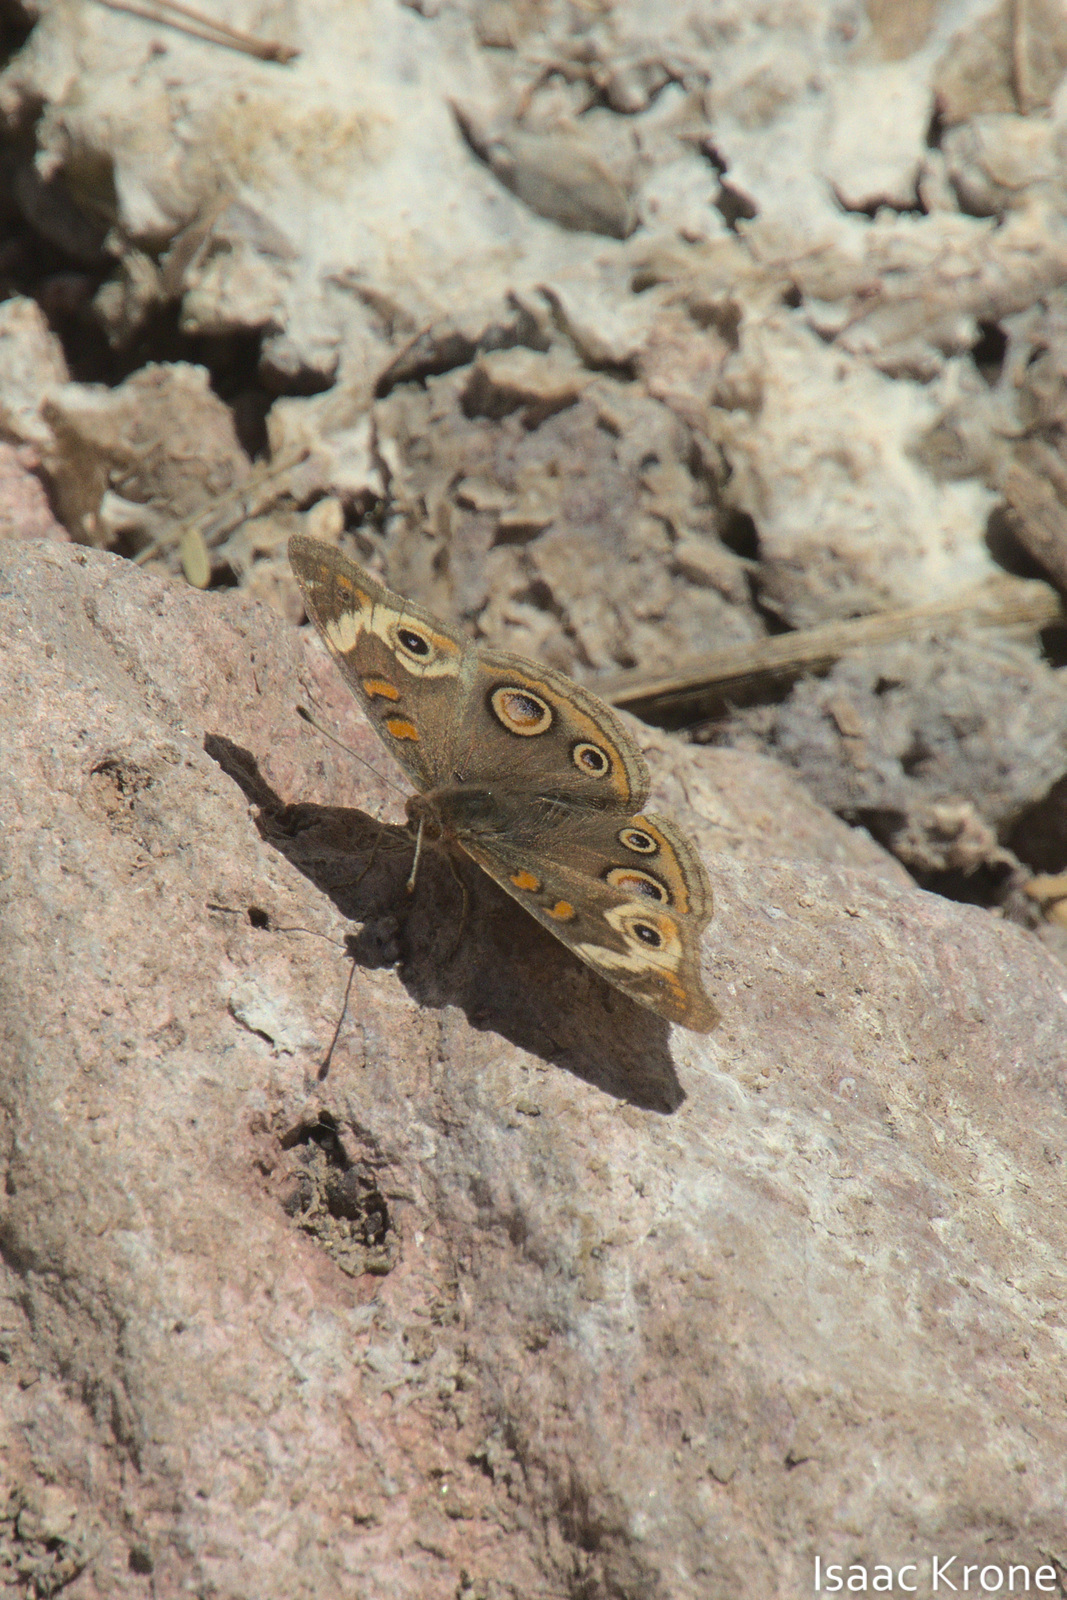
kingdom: Animalia
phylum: Arthropoda
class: Insecta
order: Lepidoptera
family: Nymphalidae
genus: Junonia
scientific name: Junonia grisea
